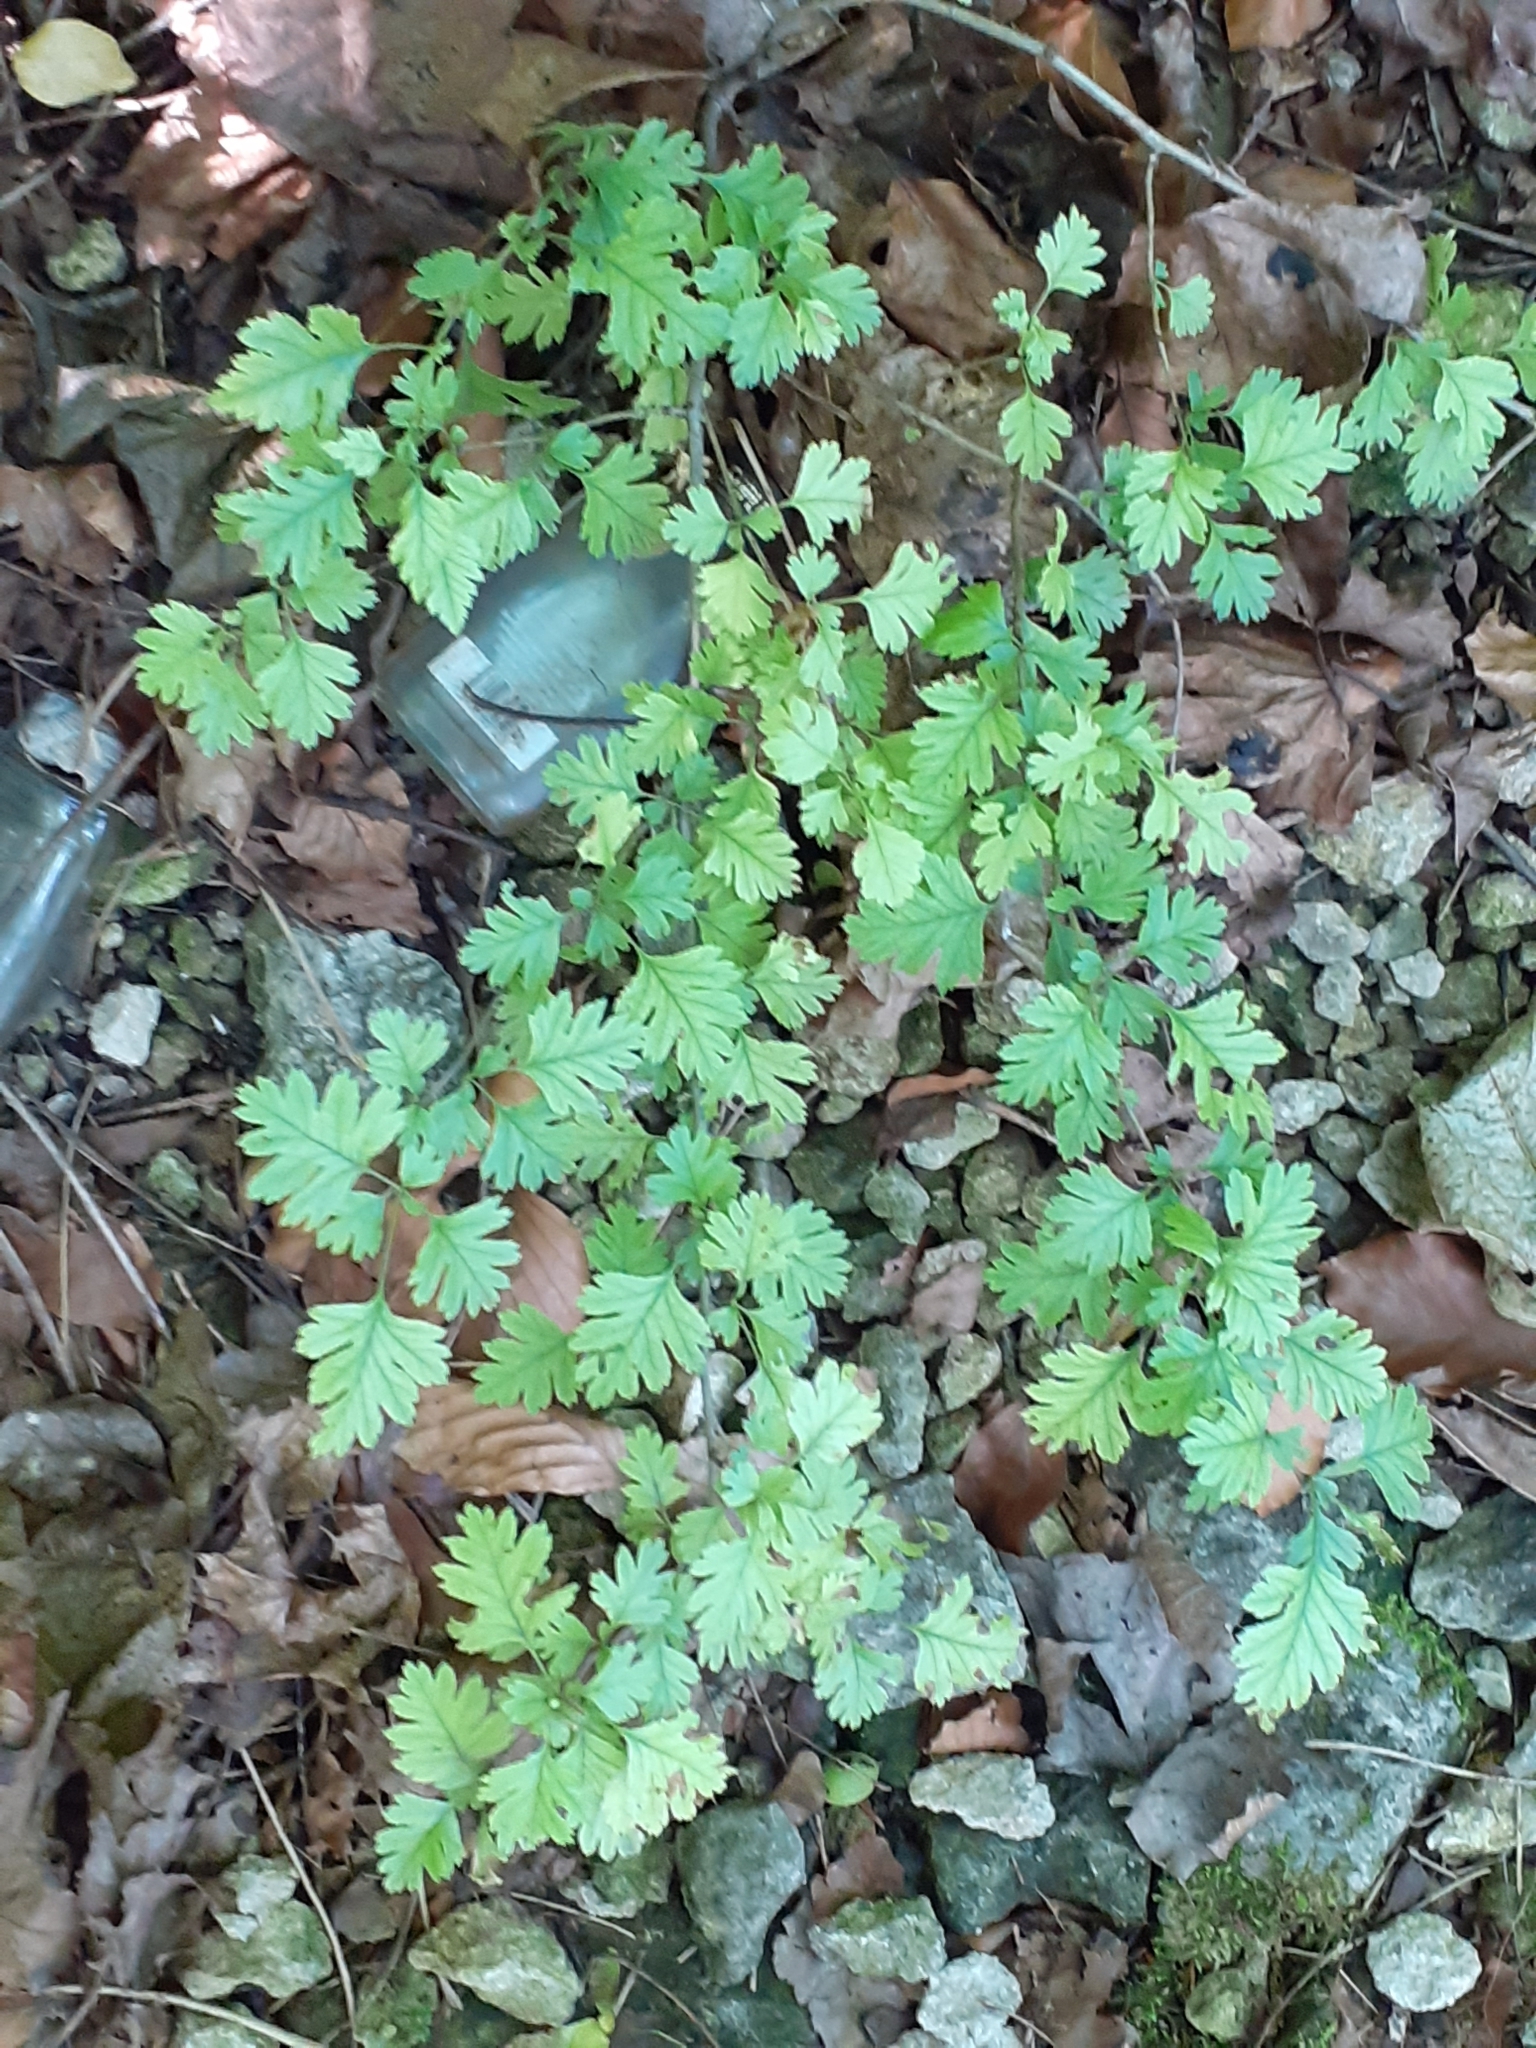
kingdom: Plantae
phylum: Tracheophyta
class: Magnoliopsida
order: Rosales
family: Rosaceae
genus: Crataegus
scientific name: Crataegus monogyna
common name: Hawthorn
